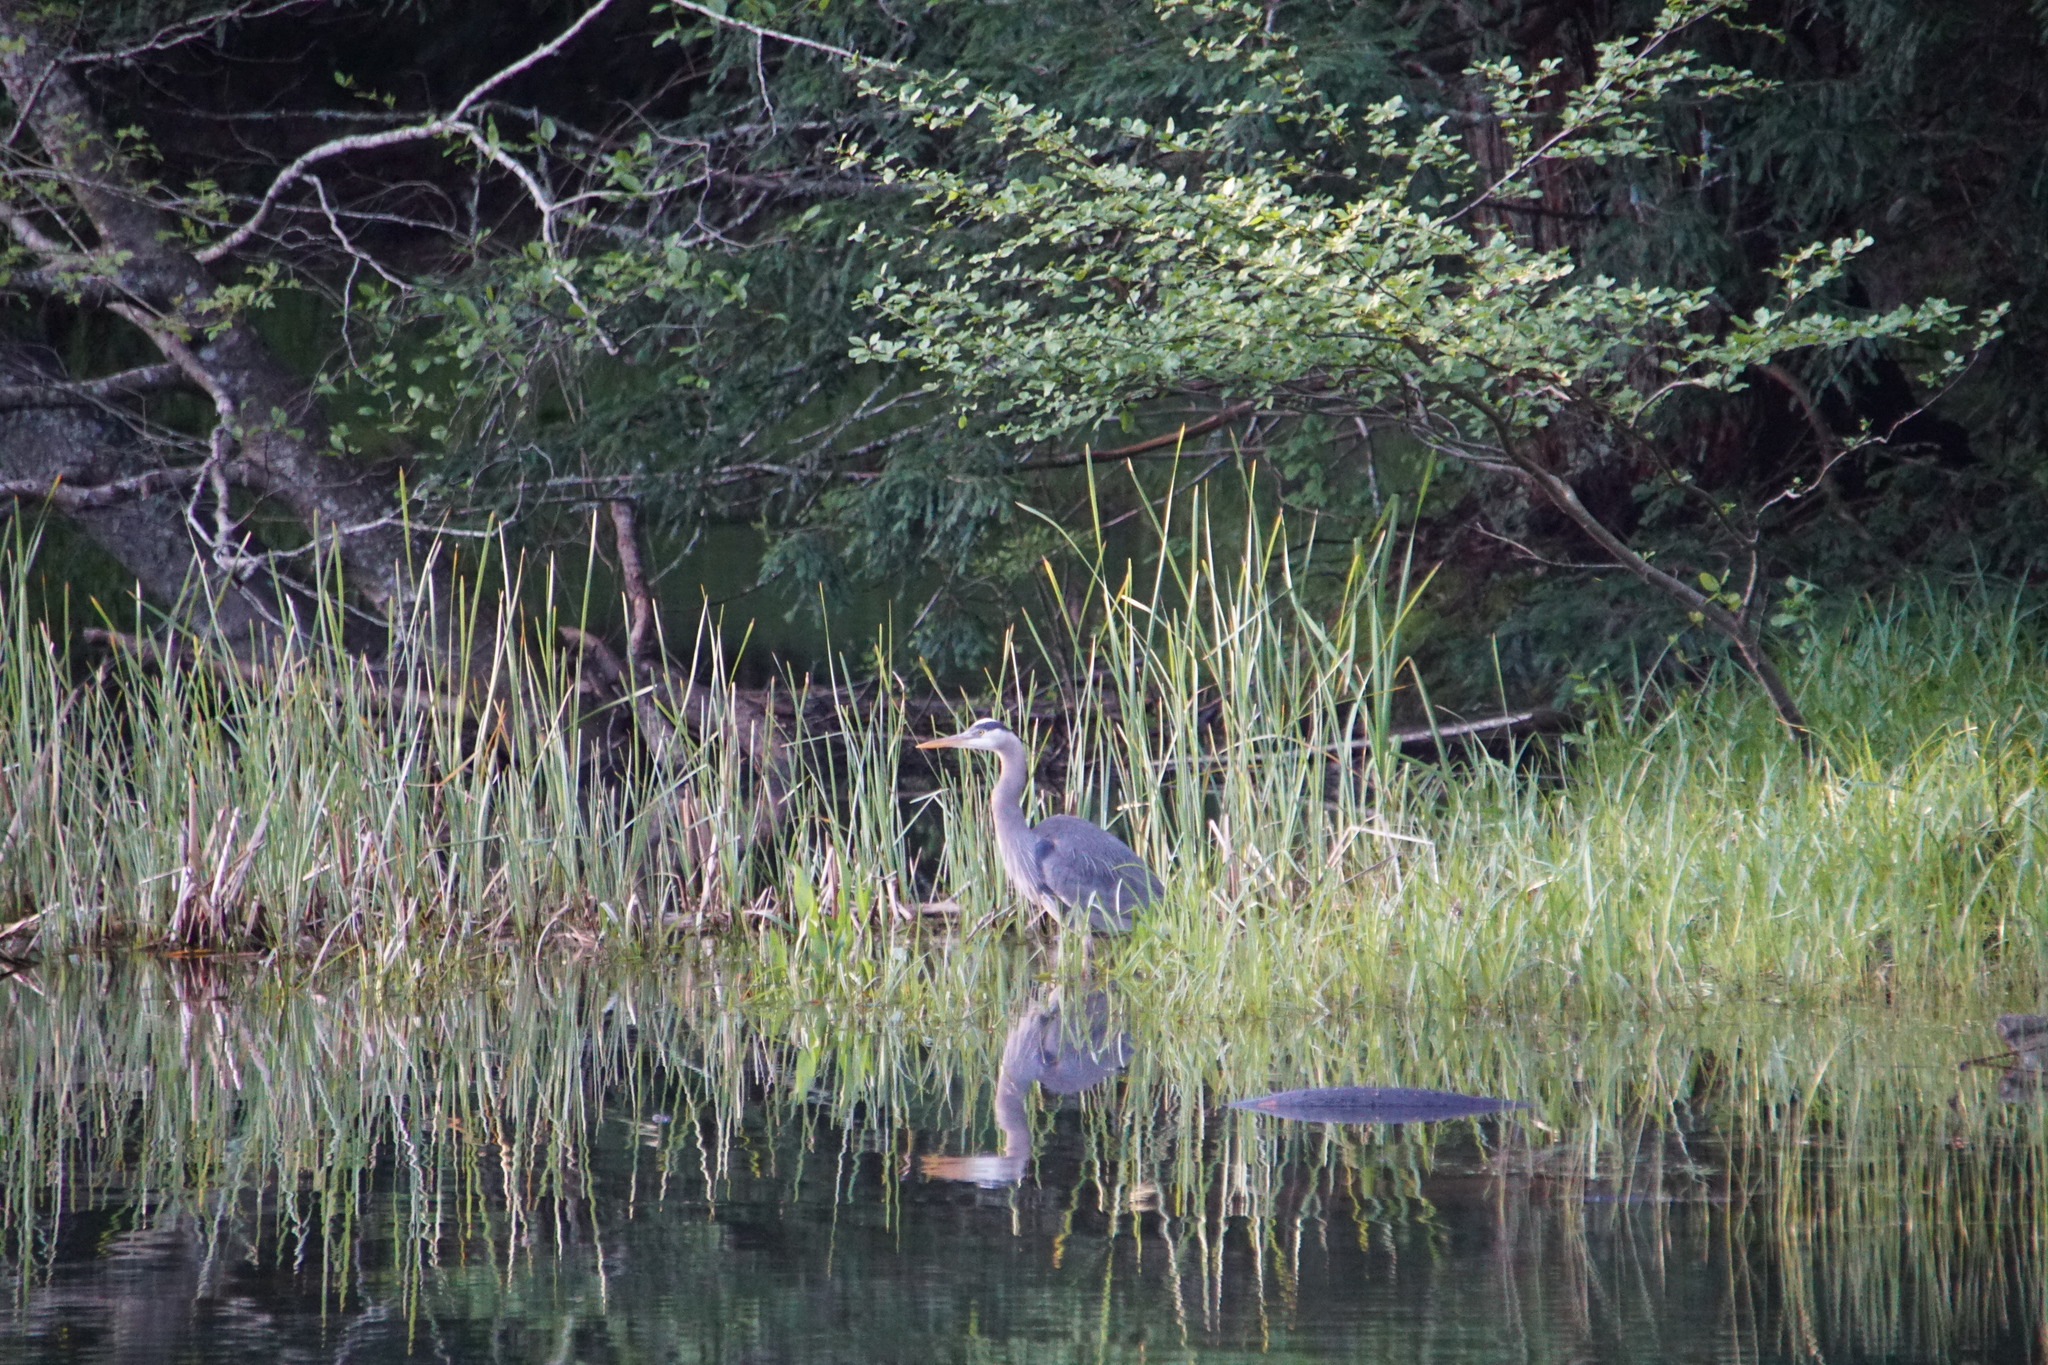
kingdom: Animalia
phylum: Chordata
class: Aves
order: Pelecaniformes
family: Ardeidae
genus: Ardea
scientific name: Ardea herodias
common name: Great blue heron
